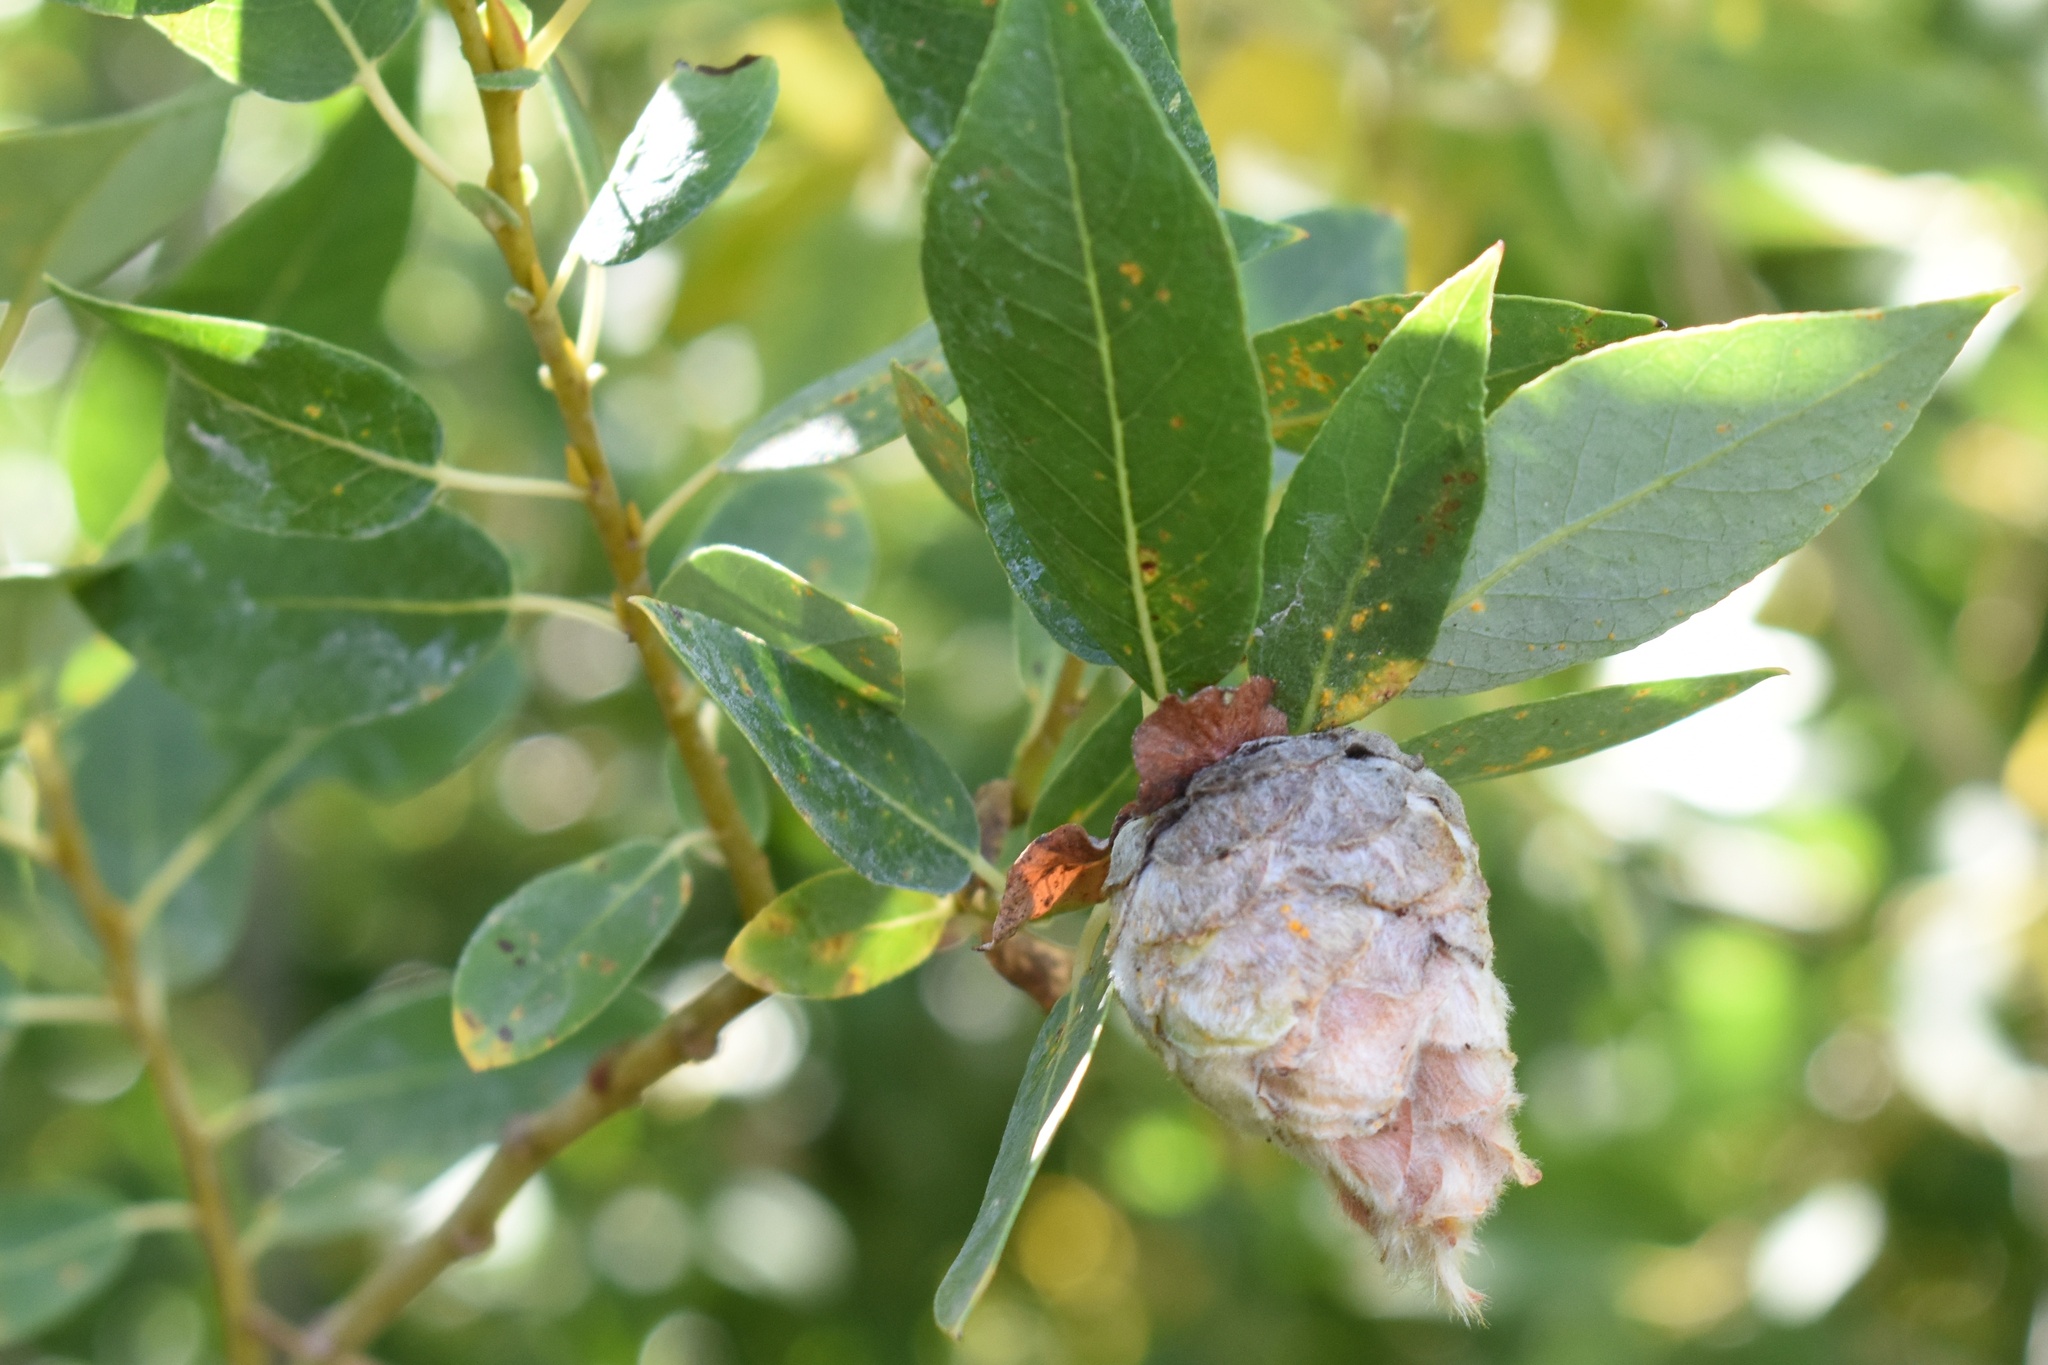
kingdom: Animalia
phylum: Arthropoda
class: Insecta
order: Diptera
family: Cecidomyiidae
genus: Rabdophaga
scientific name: Rabdophaga strobiloides
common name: Willow pinecone gall midge
